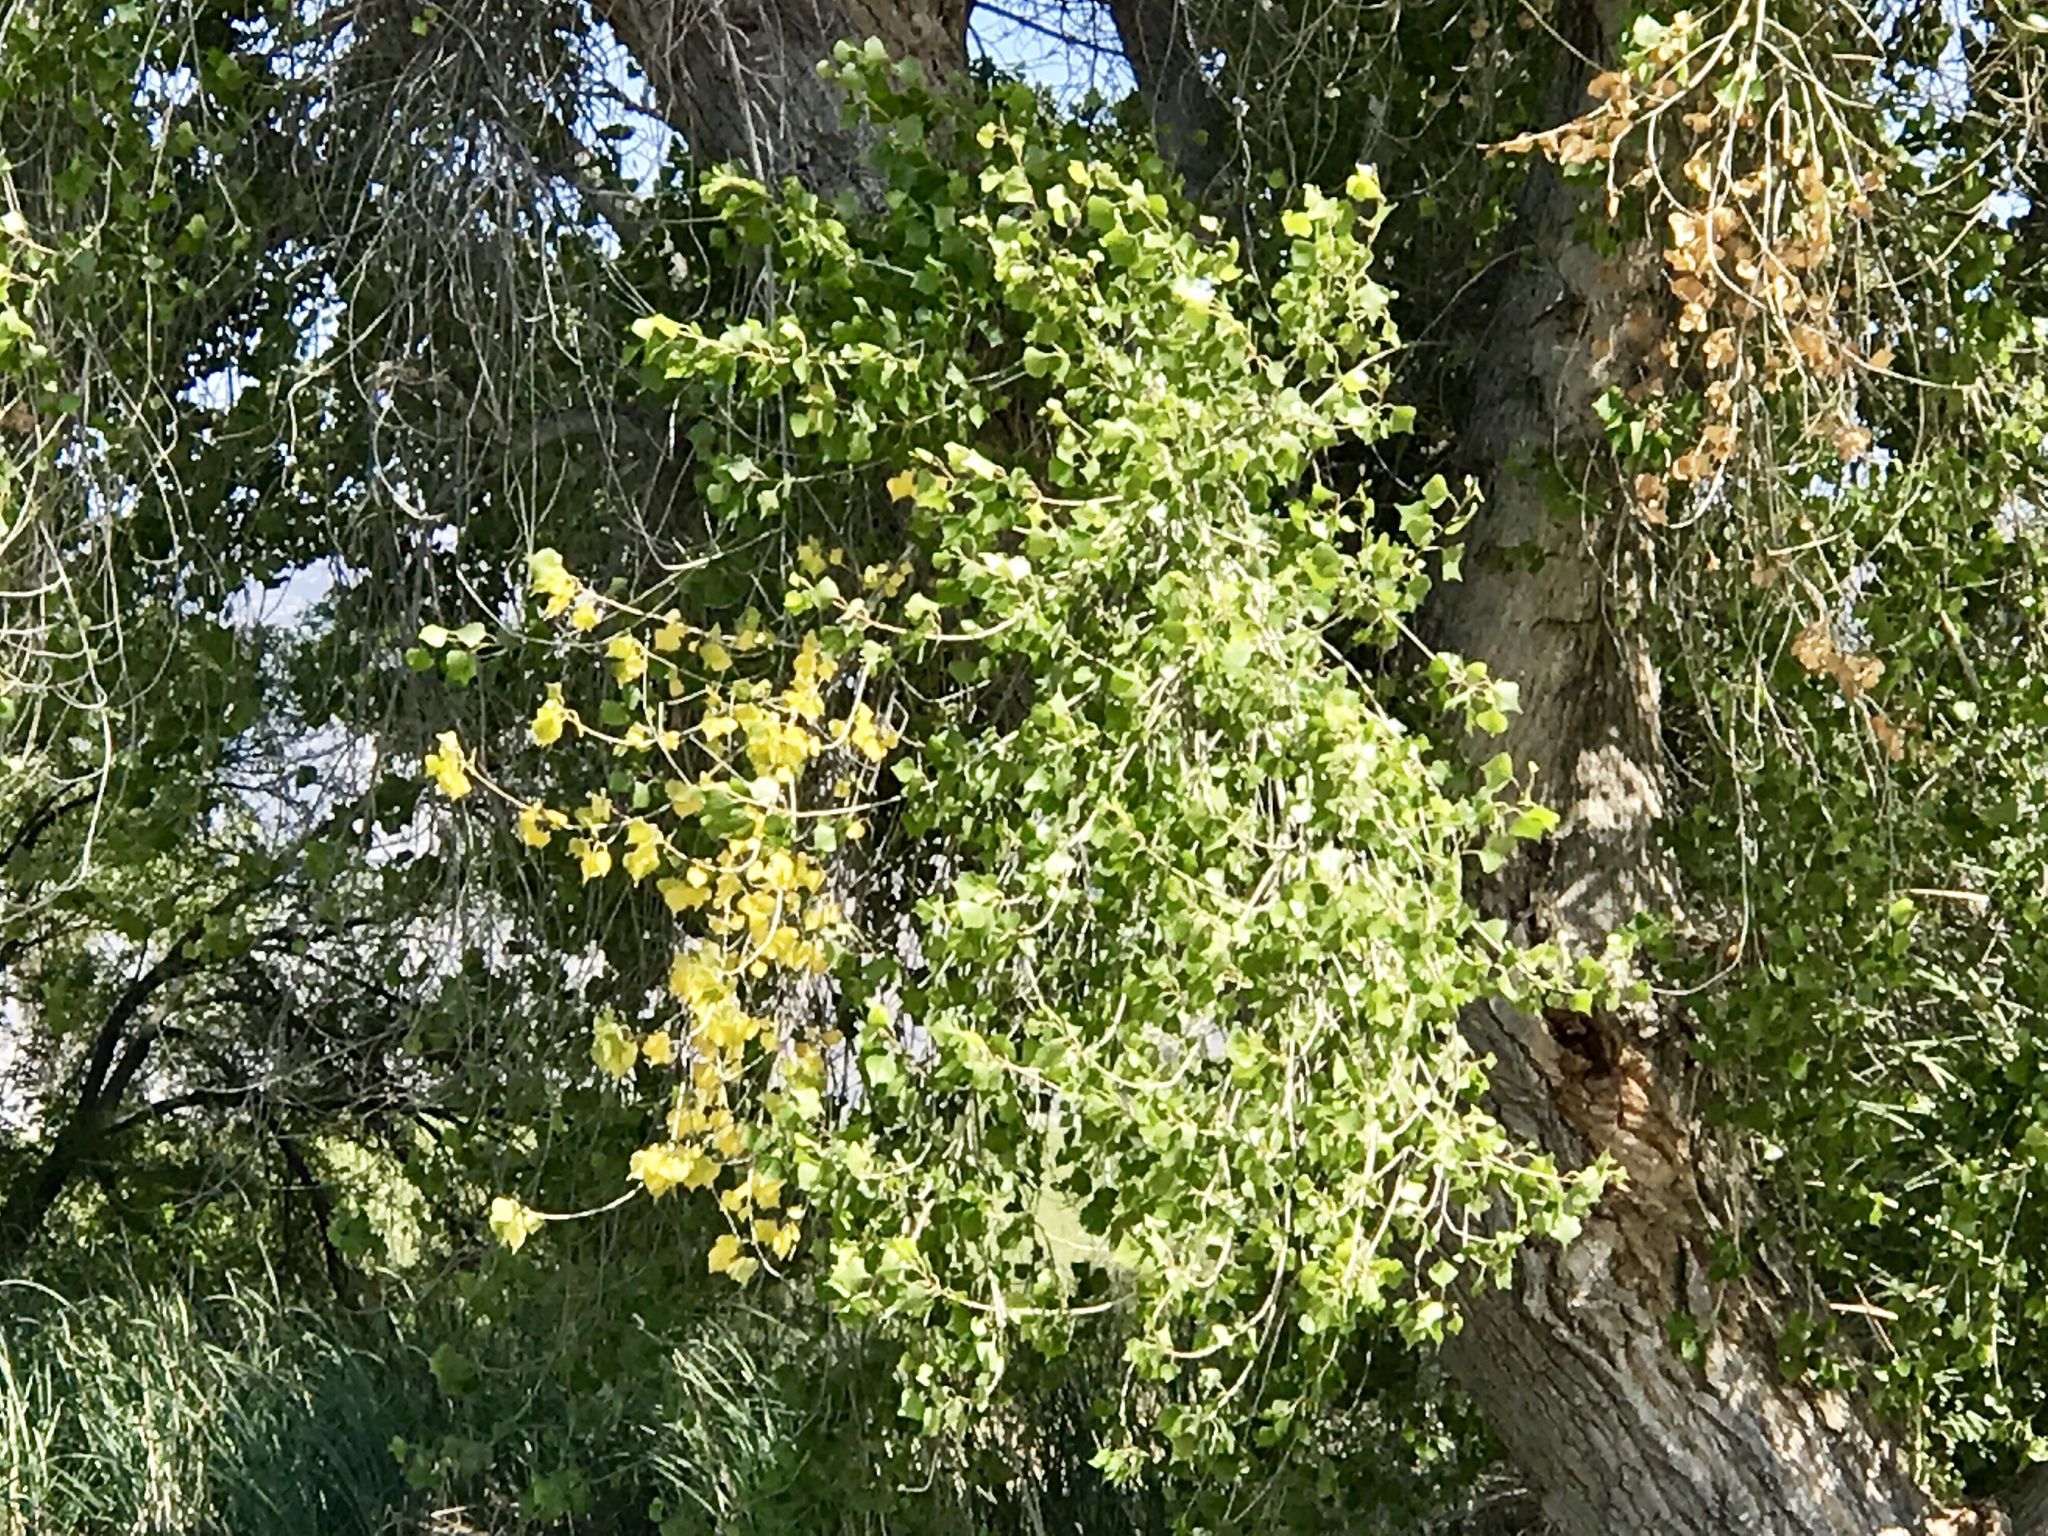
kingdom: Plantae
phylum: Tracheophyta
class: Magnoliopsida
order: Malpighiales
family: Salicaceae
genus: Populus
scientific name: Populus fremontii
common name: Fremont's cottonwood
